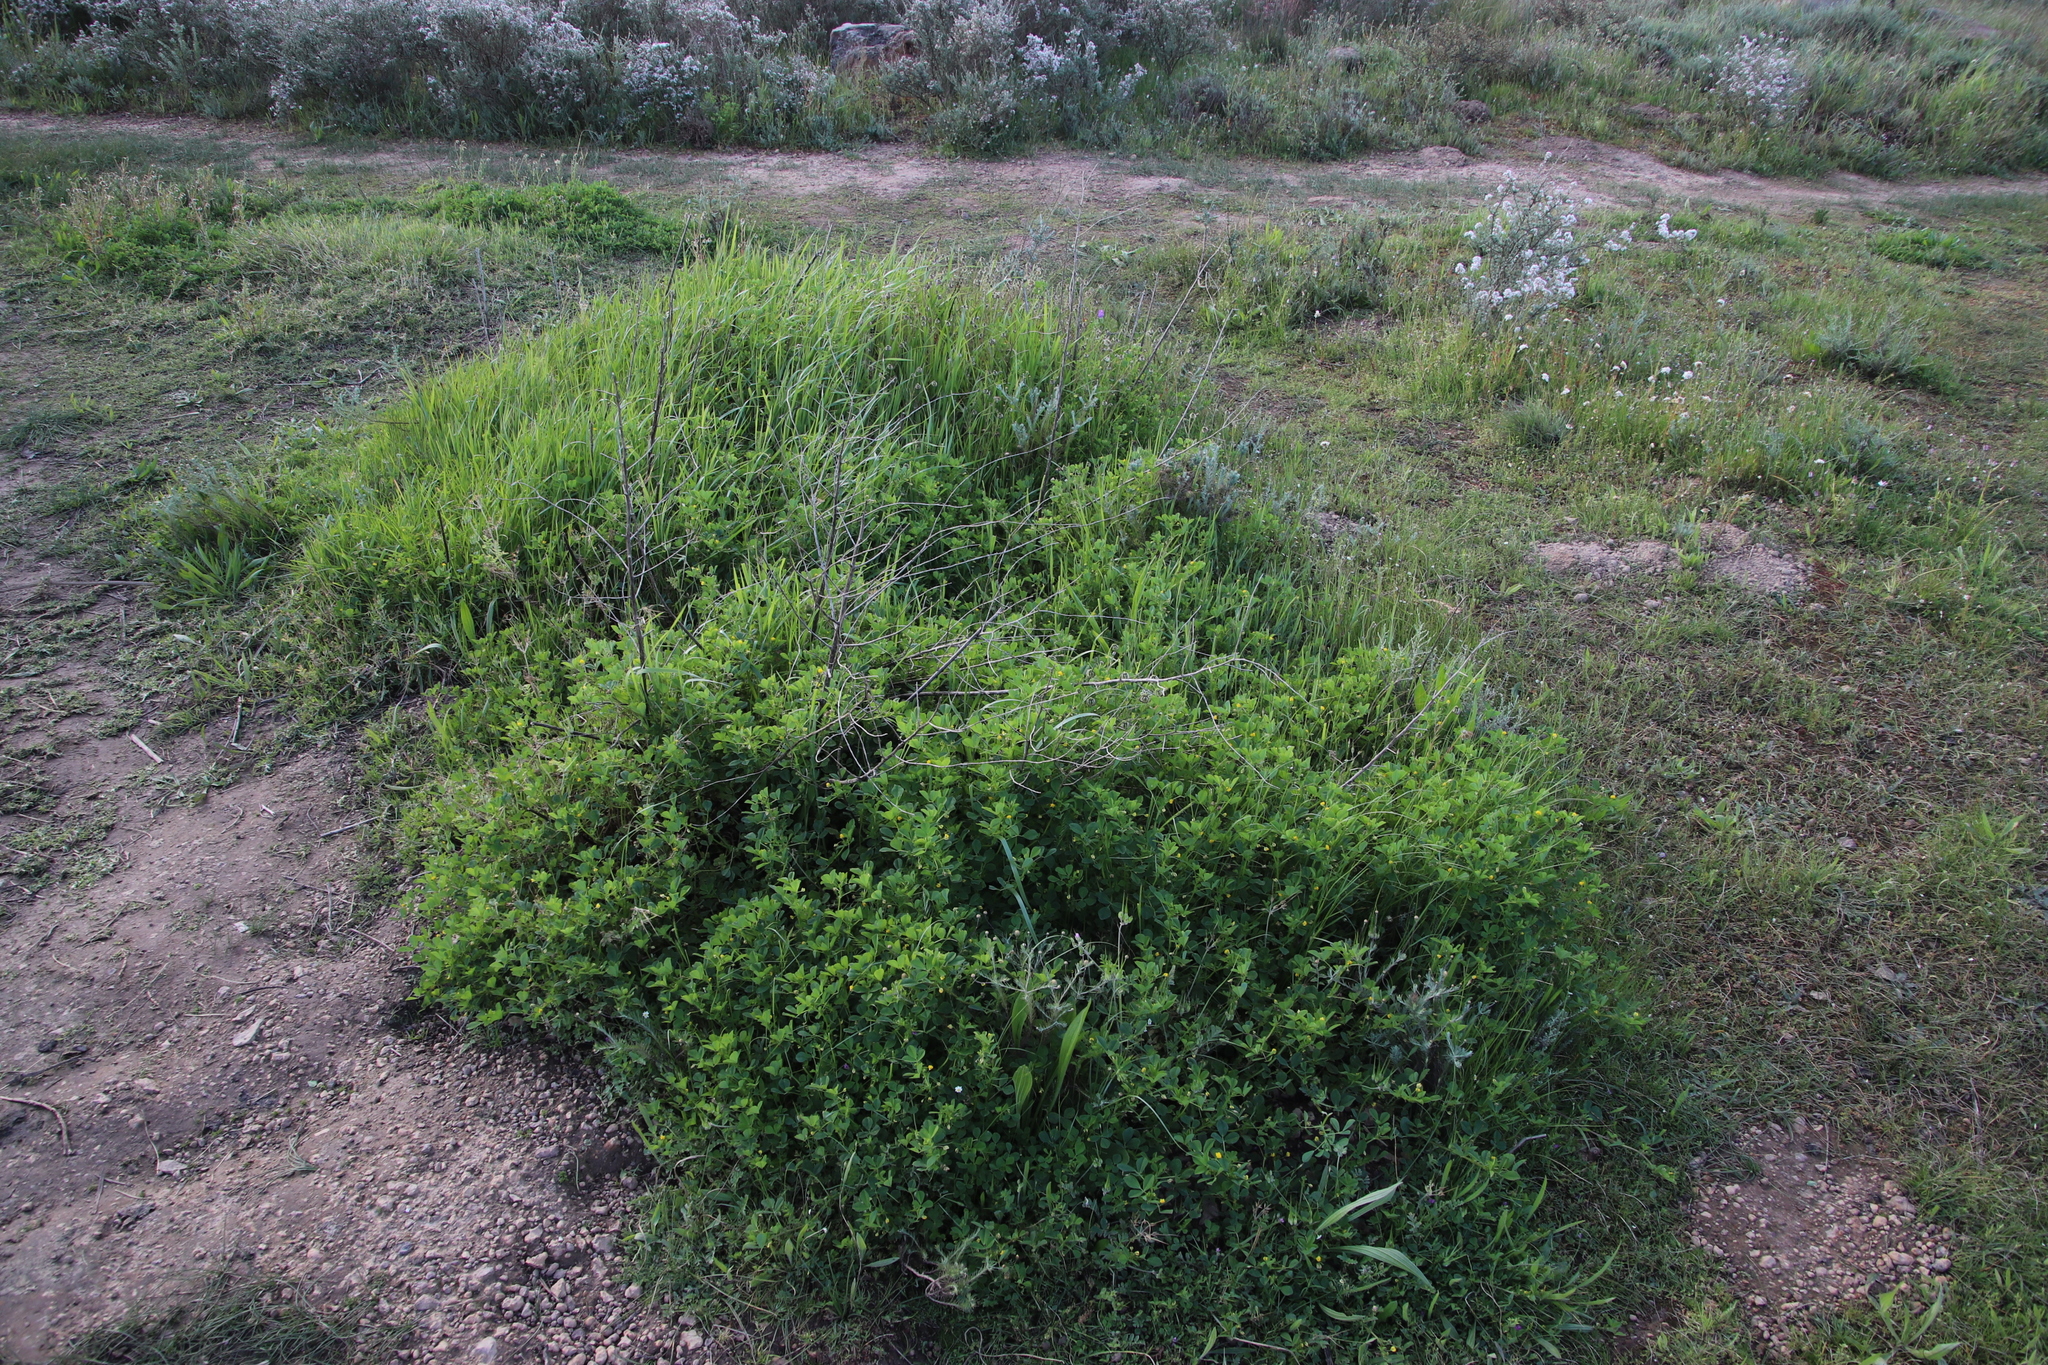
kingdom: Plantae
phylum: Tracheophyta
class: Magnoliopsida
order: Fabales
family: Fabaceae
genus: Medicago
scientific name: Medicago polymorpha
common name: Burclover
